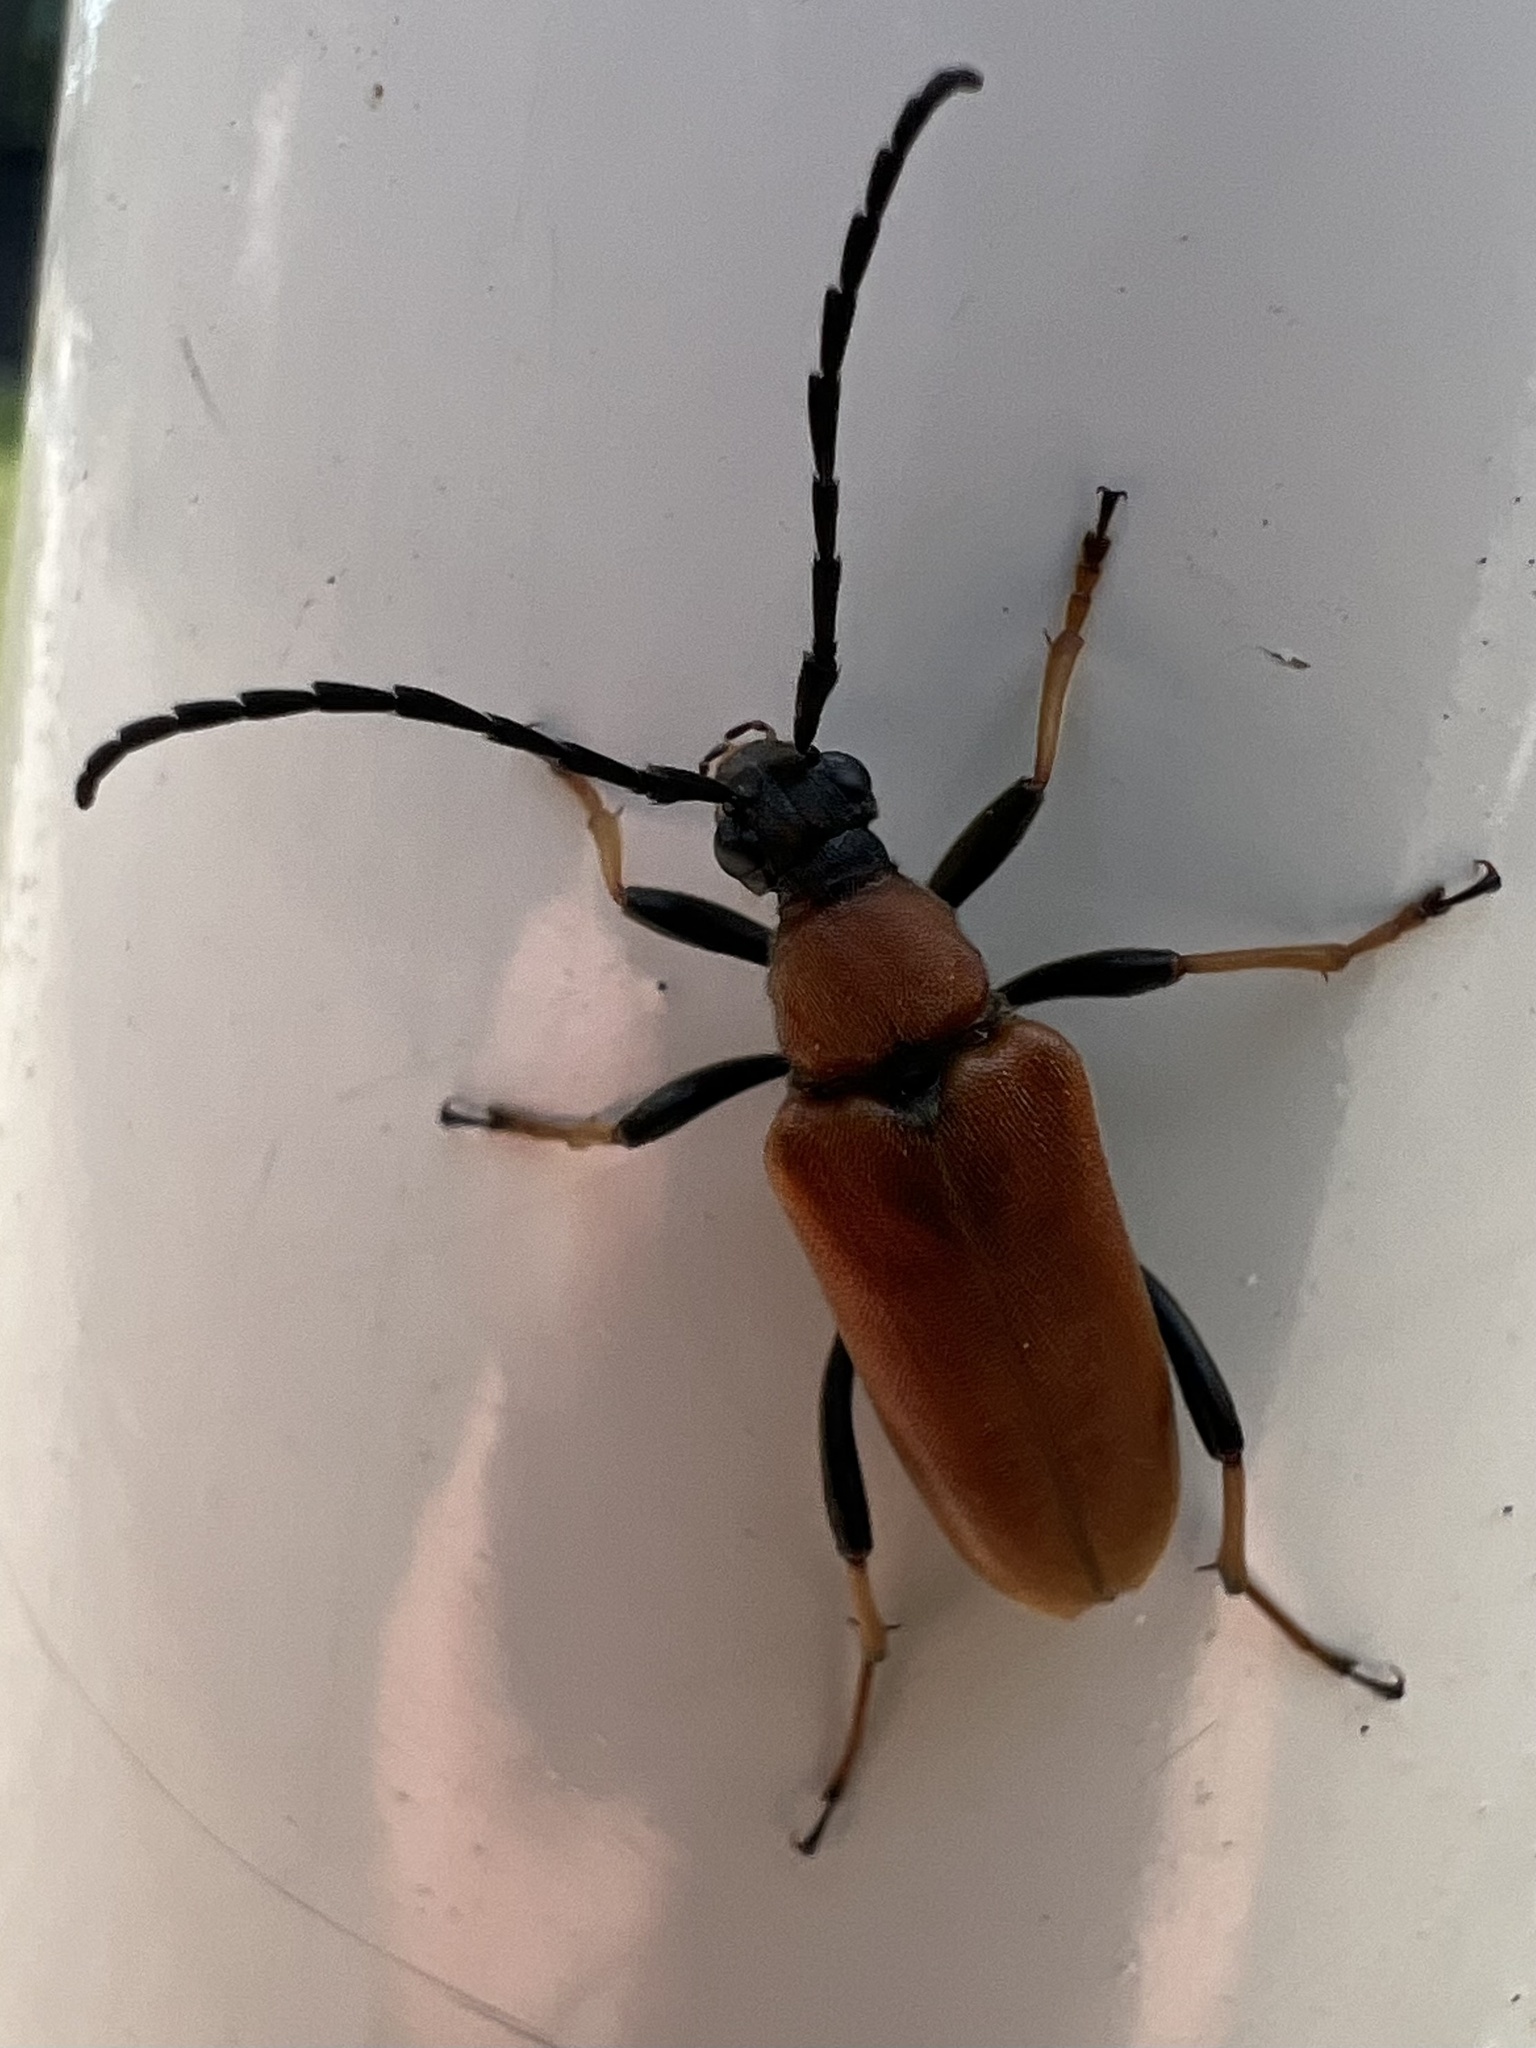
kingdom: Animalia
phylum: Arthropoda
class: Insecta
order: Coleoptera
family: Cerambycidae
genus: Stictoleptura
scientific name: Stictoleptura rubra
